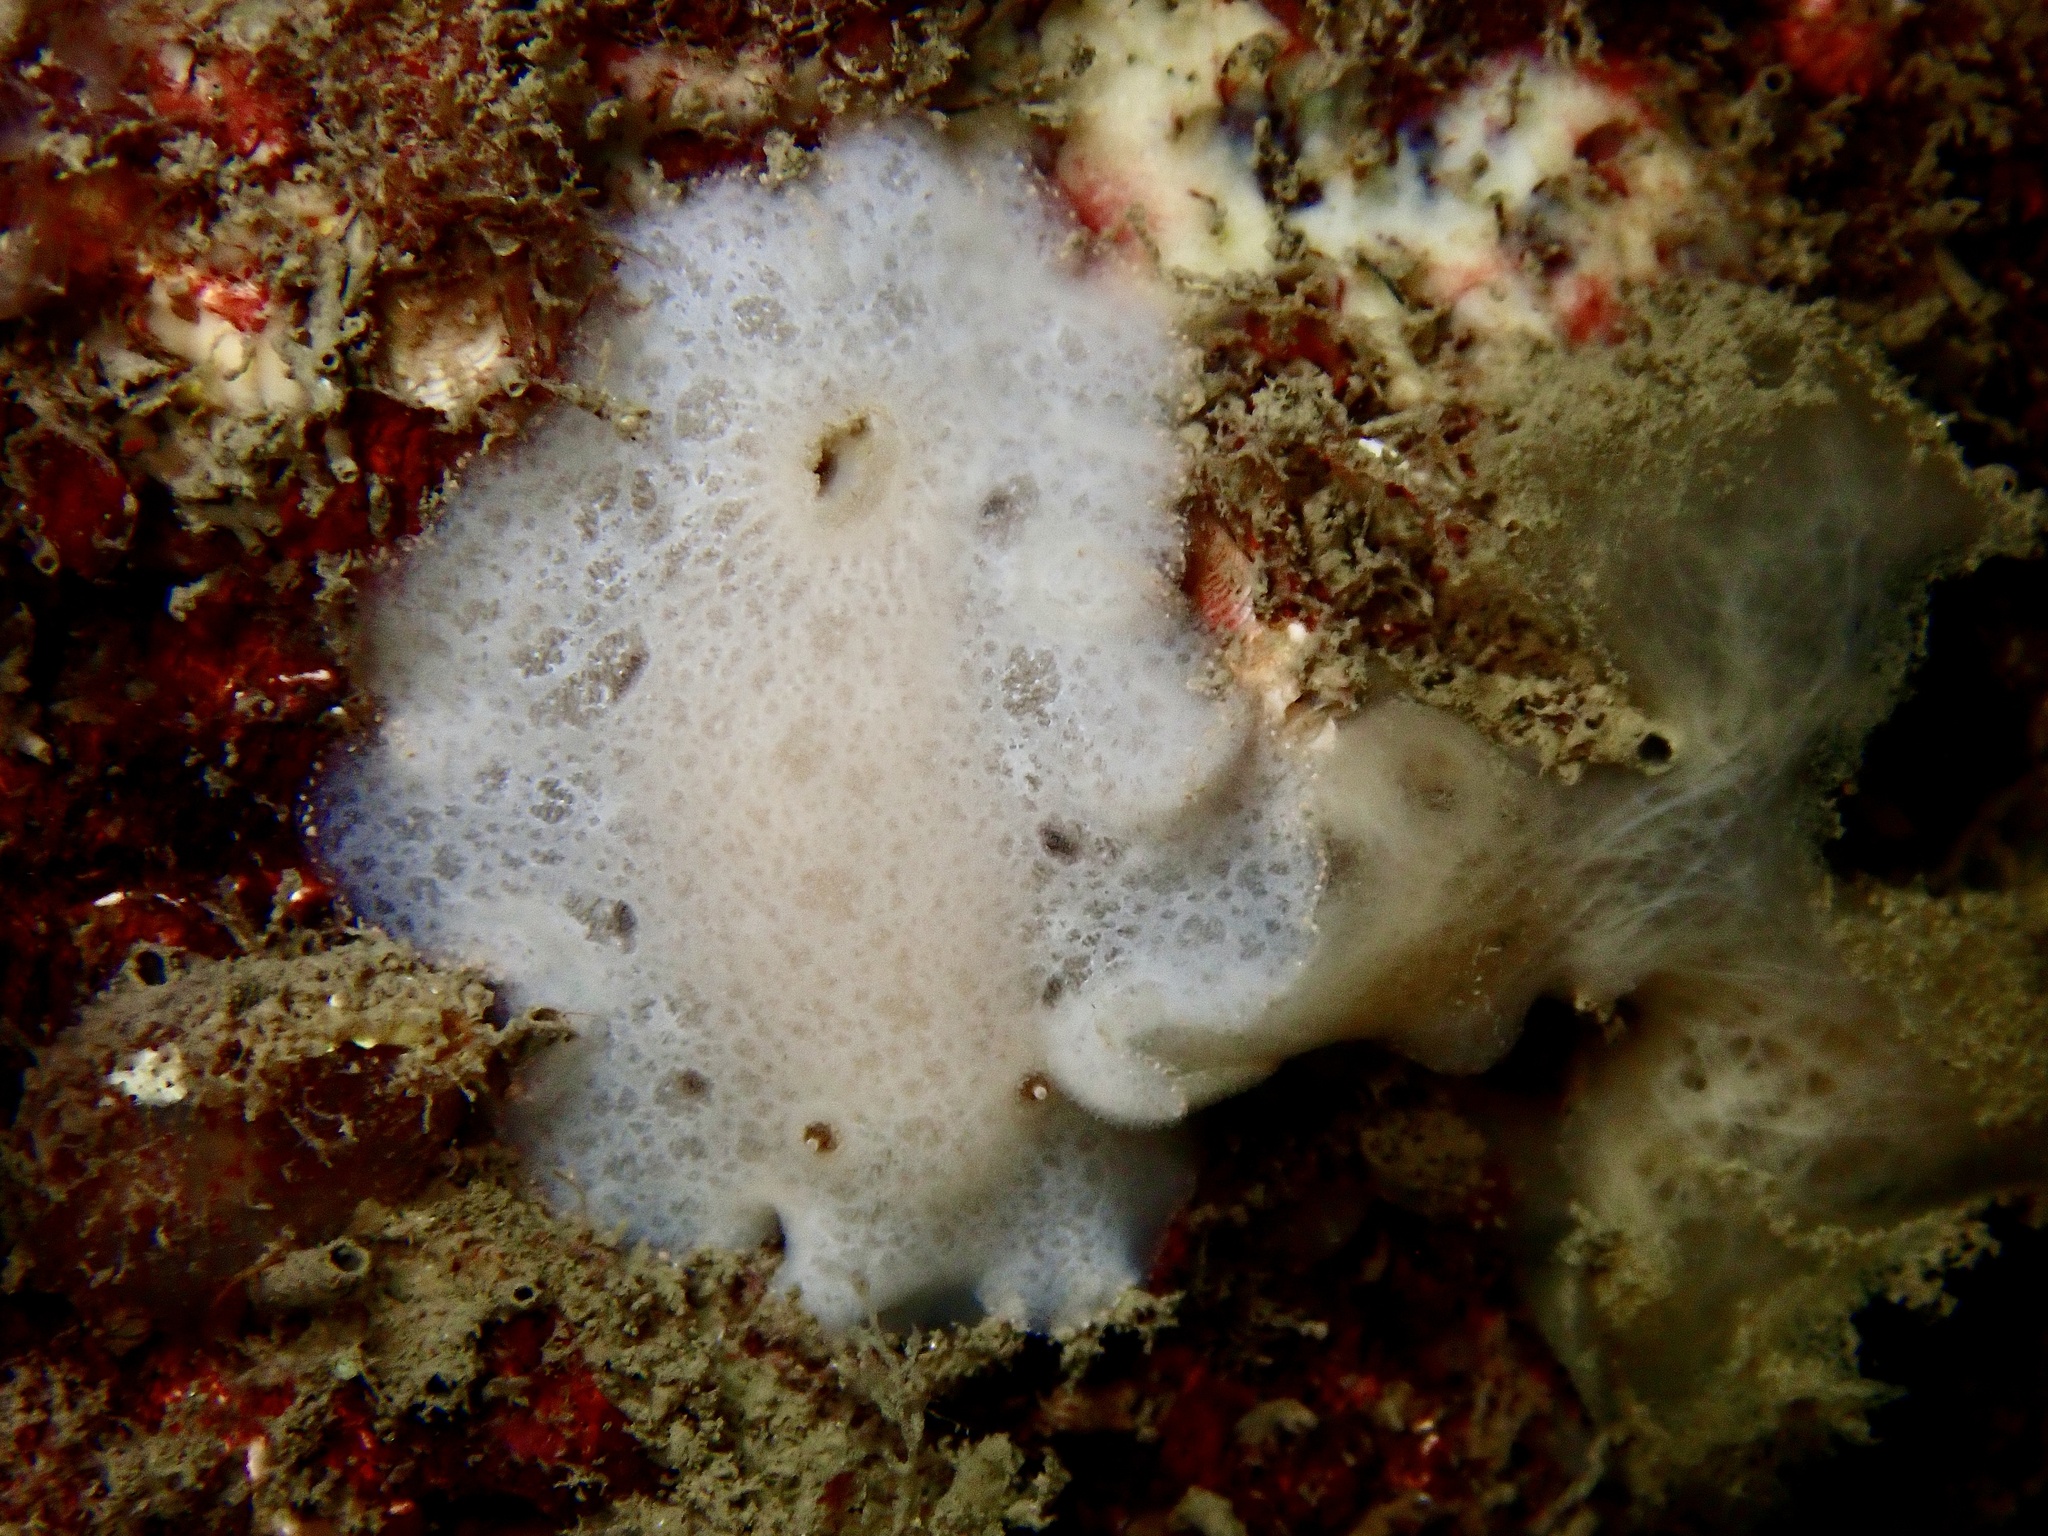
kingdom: Animalia
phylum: Mollusca
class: Gastropoda
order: Nudibranchia
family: Discodorididae
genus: Jorunna
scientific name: Jorunna tomentosa
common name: Grey sea slug
